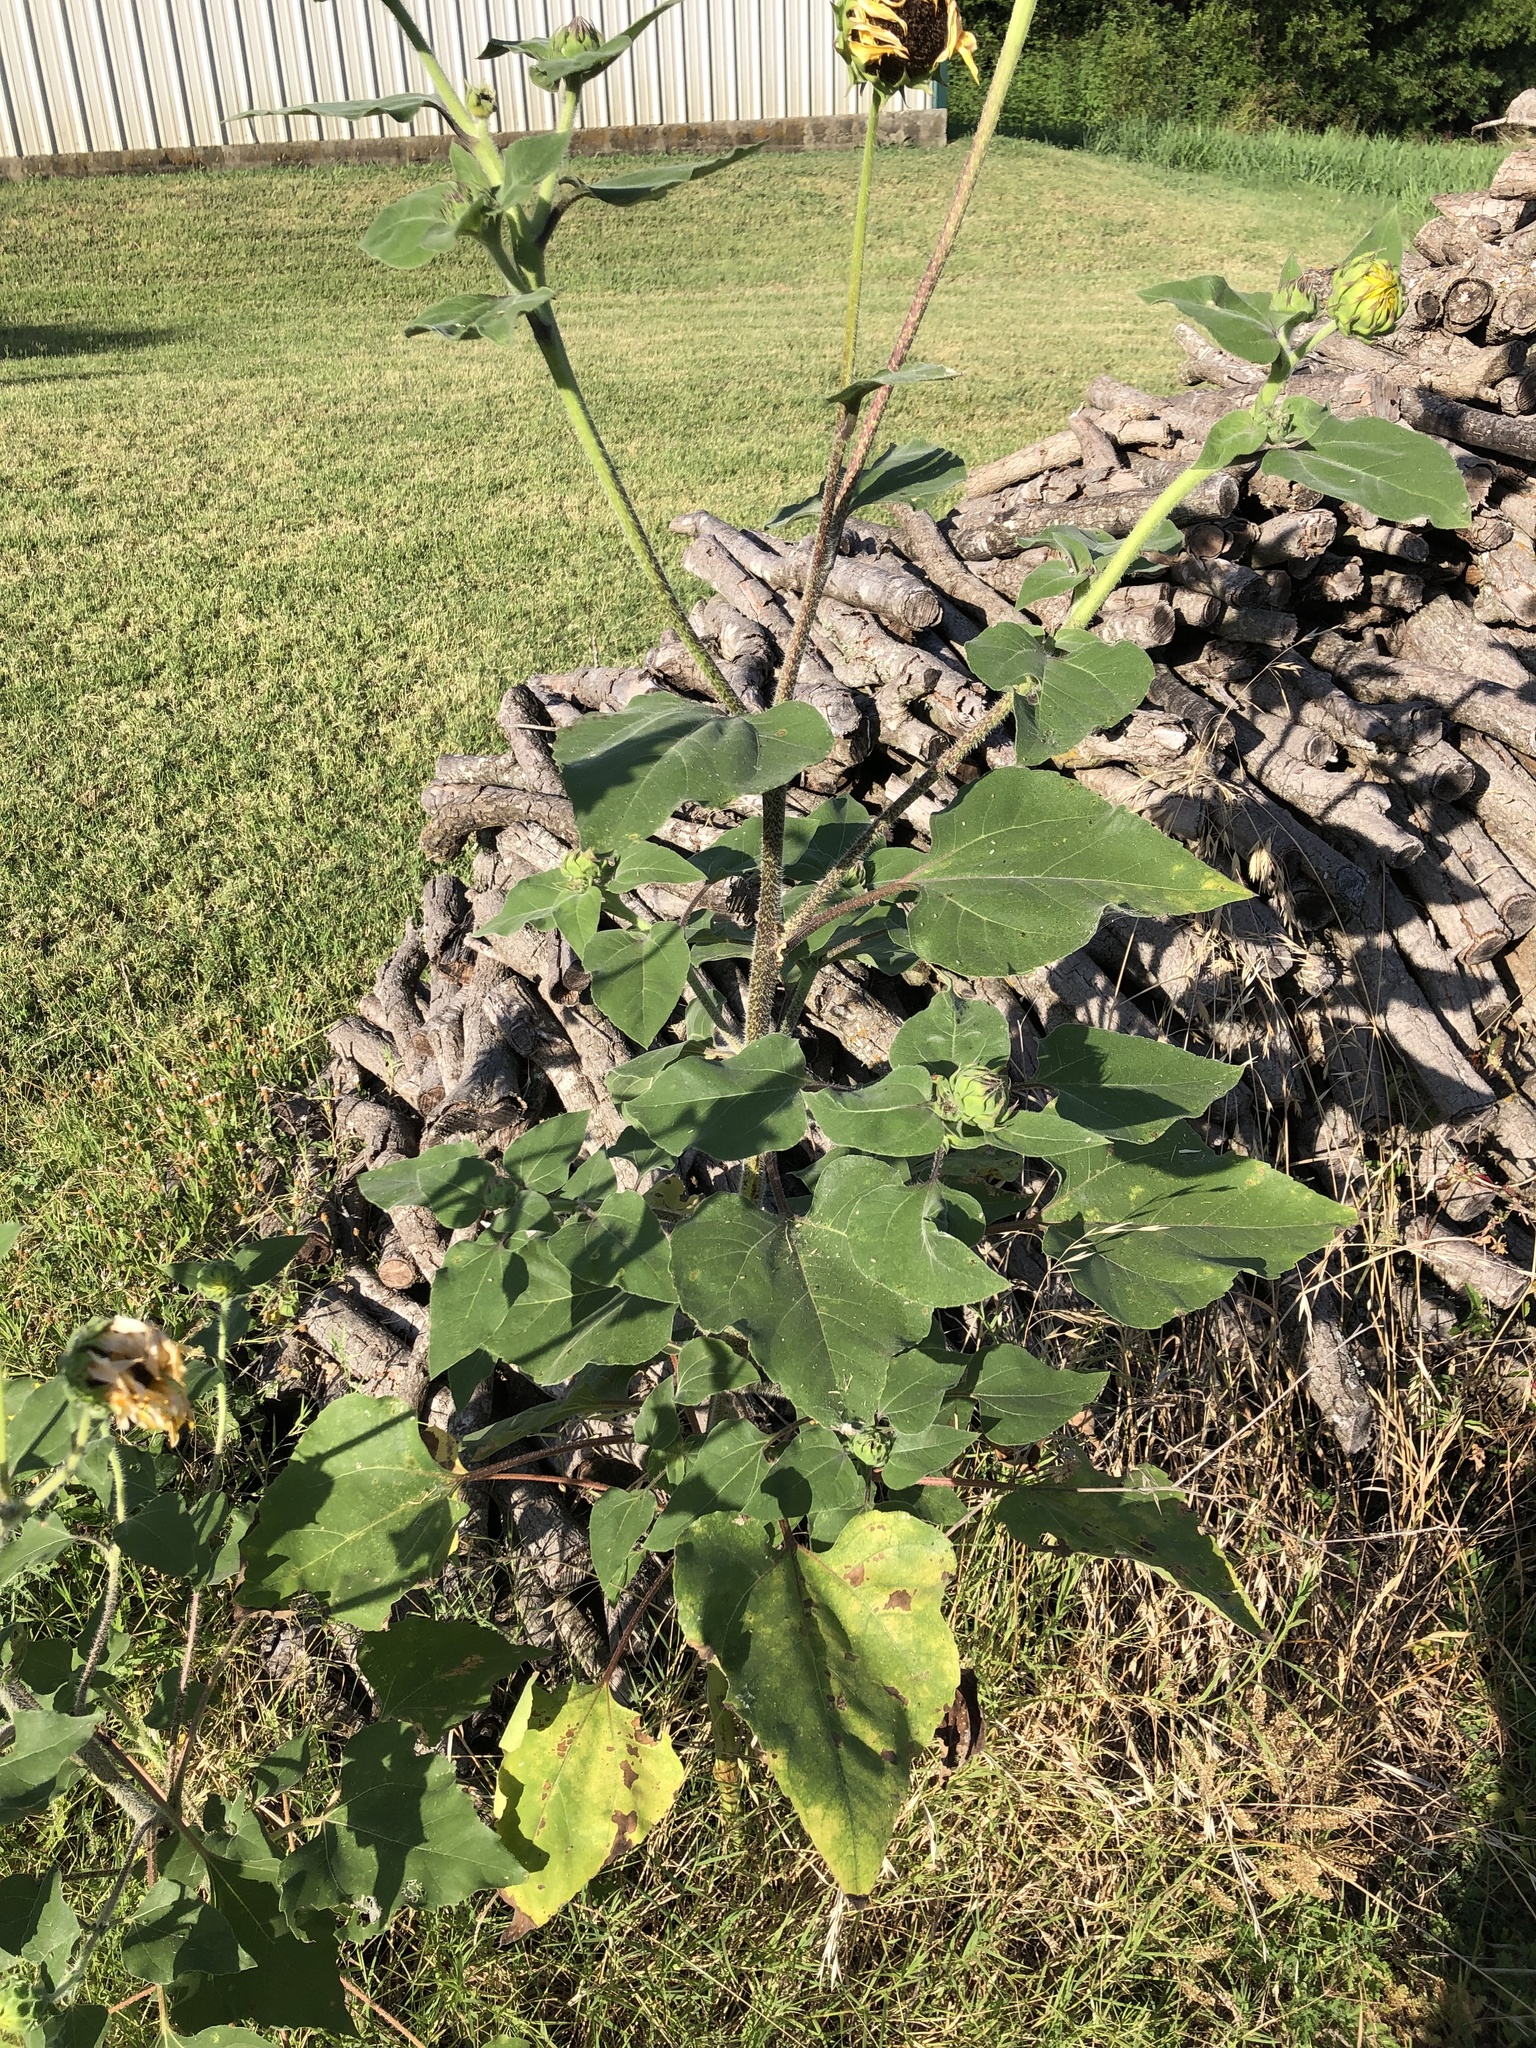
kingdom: Plantae
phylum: Tracheophyta
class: Magnoliopsida
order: Asterales
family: Asteraceae
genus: Helianthus
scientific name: Helianthus annuus
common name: Sunflower
